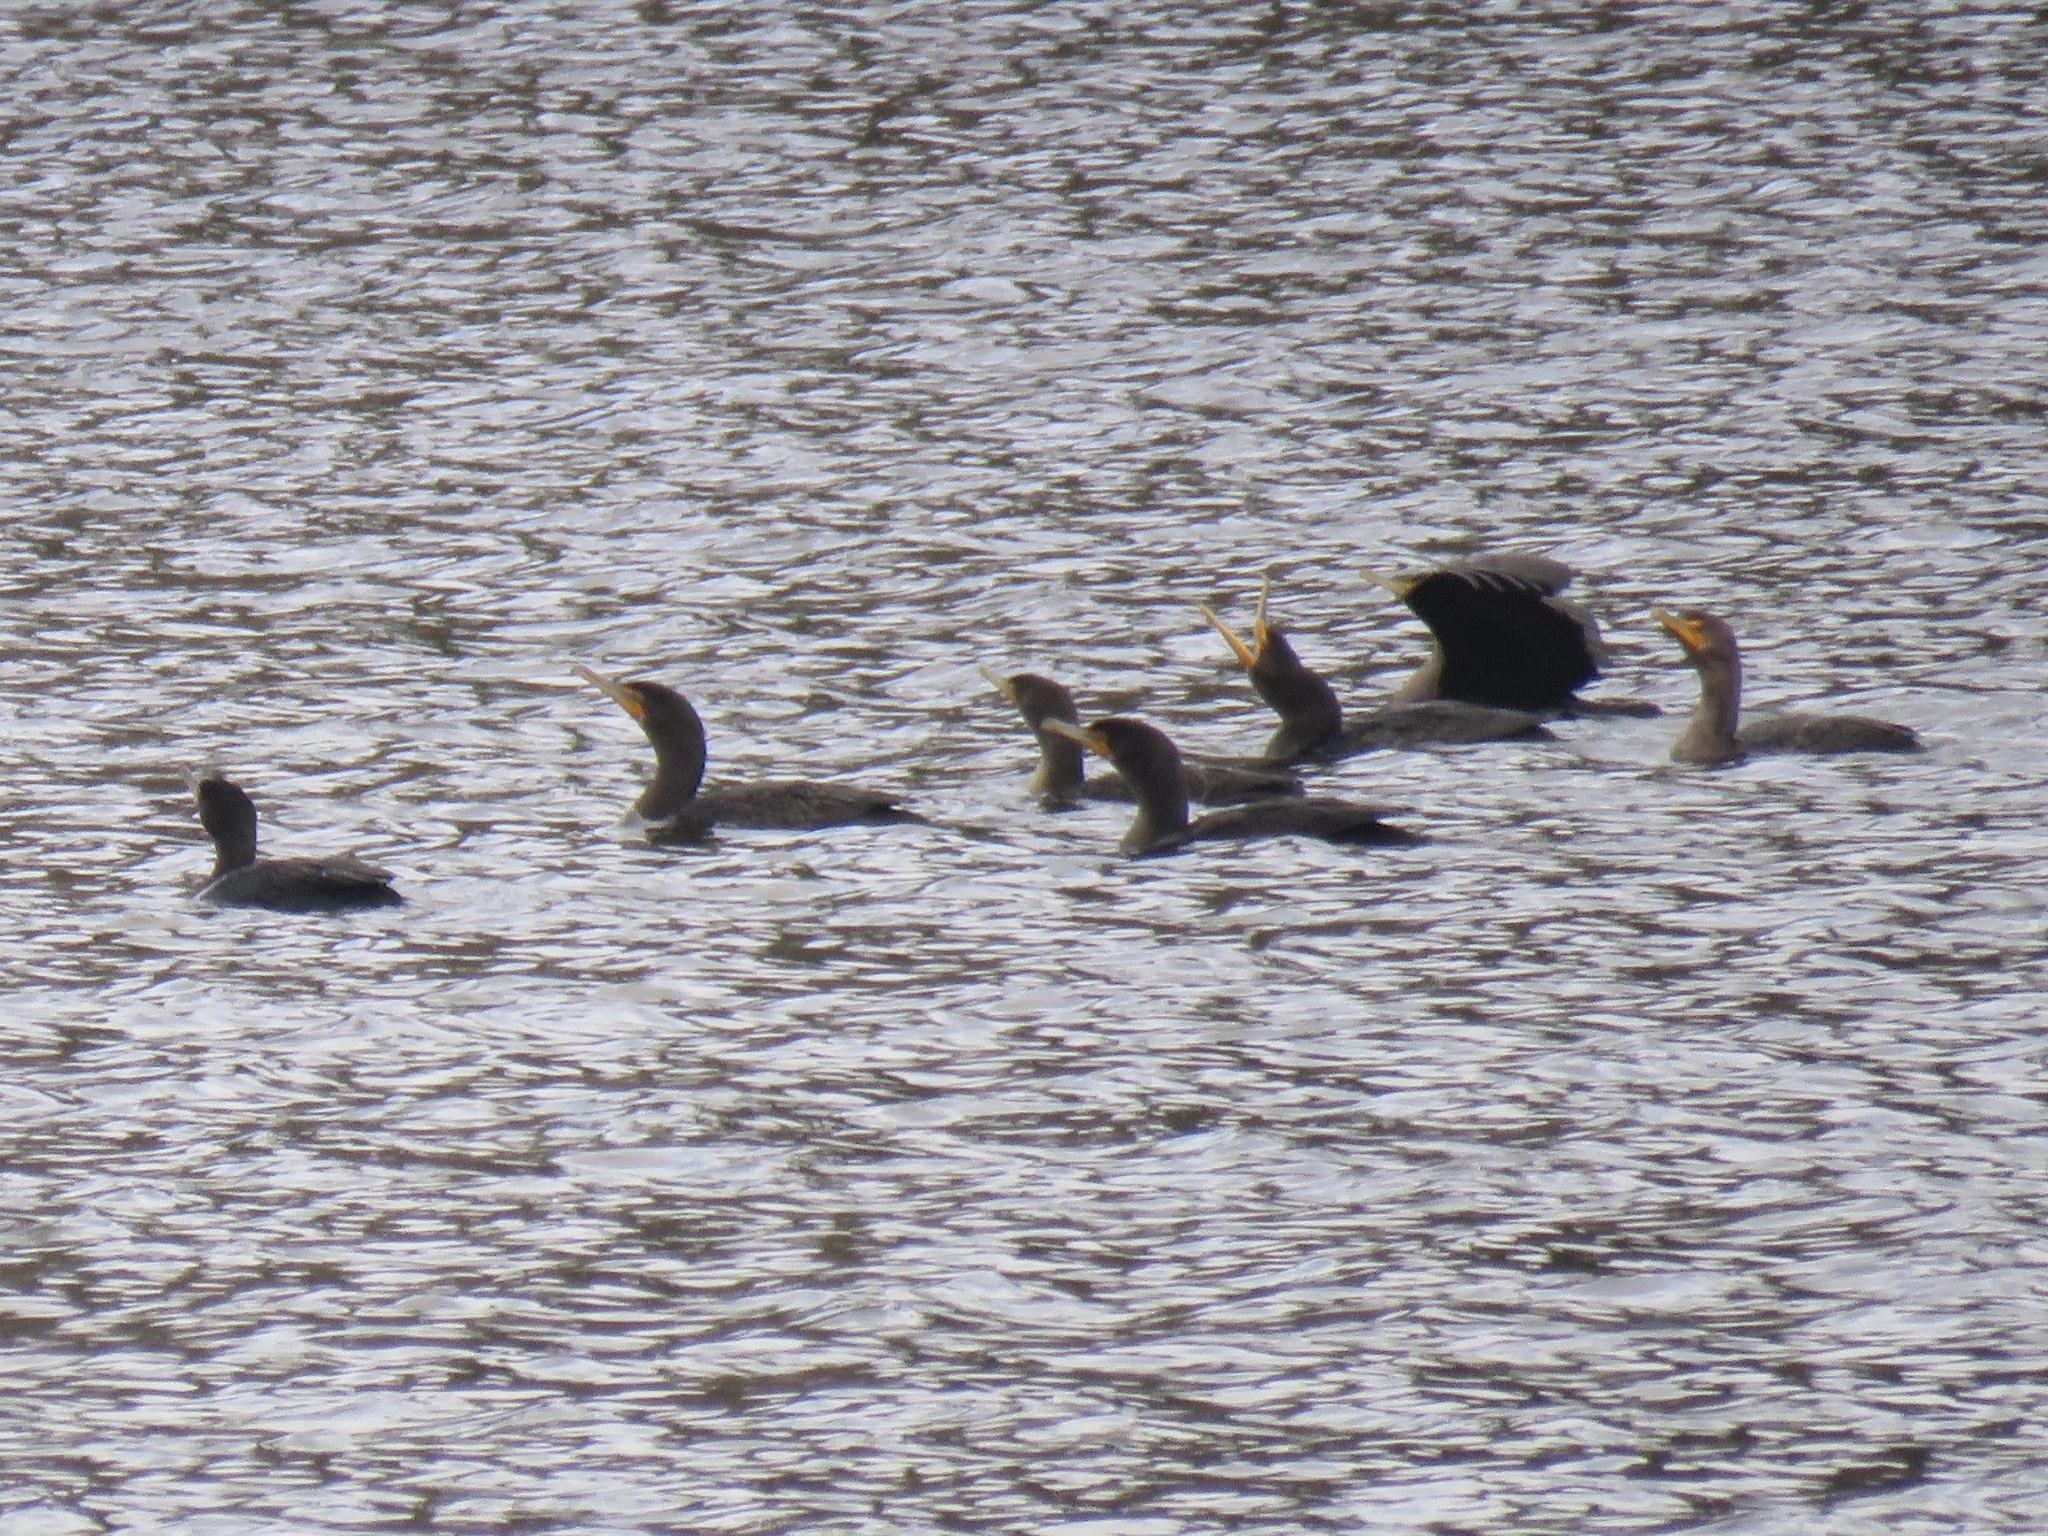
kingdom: Animalia
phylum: Chordata
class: Aves
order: Suliformes
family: Phalacrocoracidae
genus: Phalacrocorax
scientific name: Phalacrocorax auritus
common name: Double-crested cormorant
